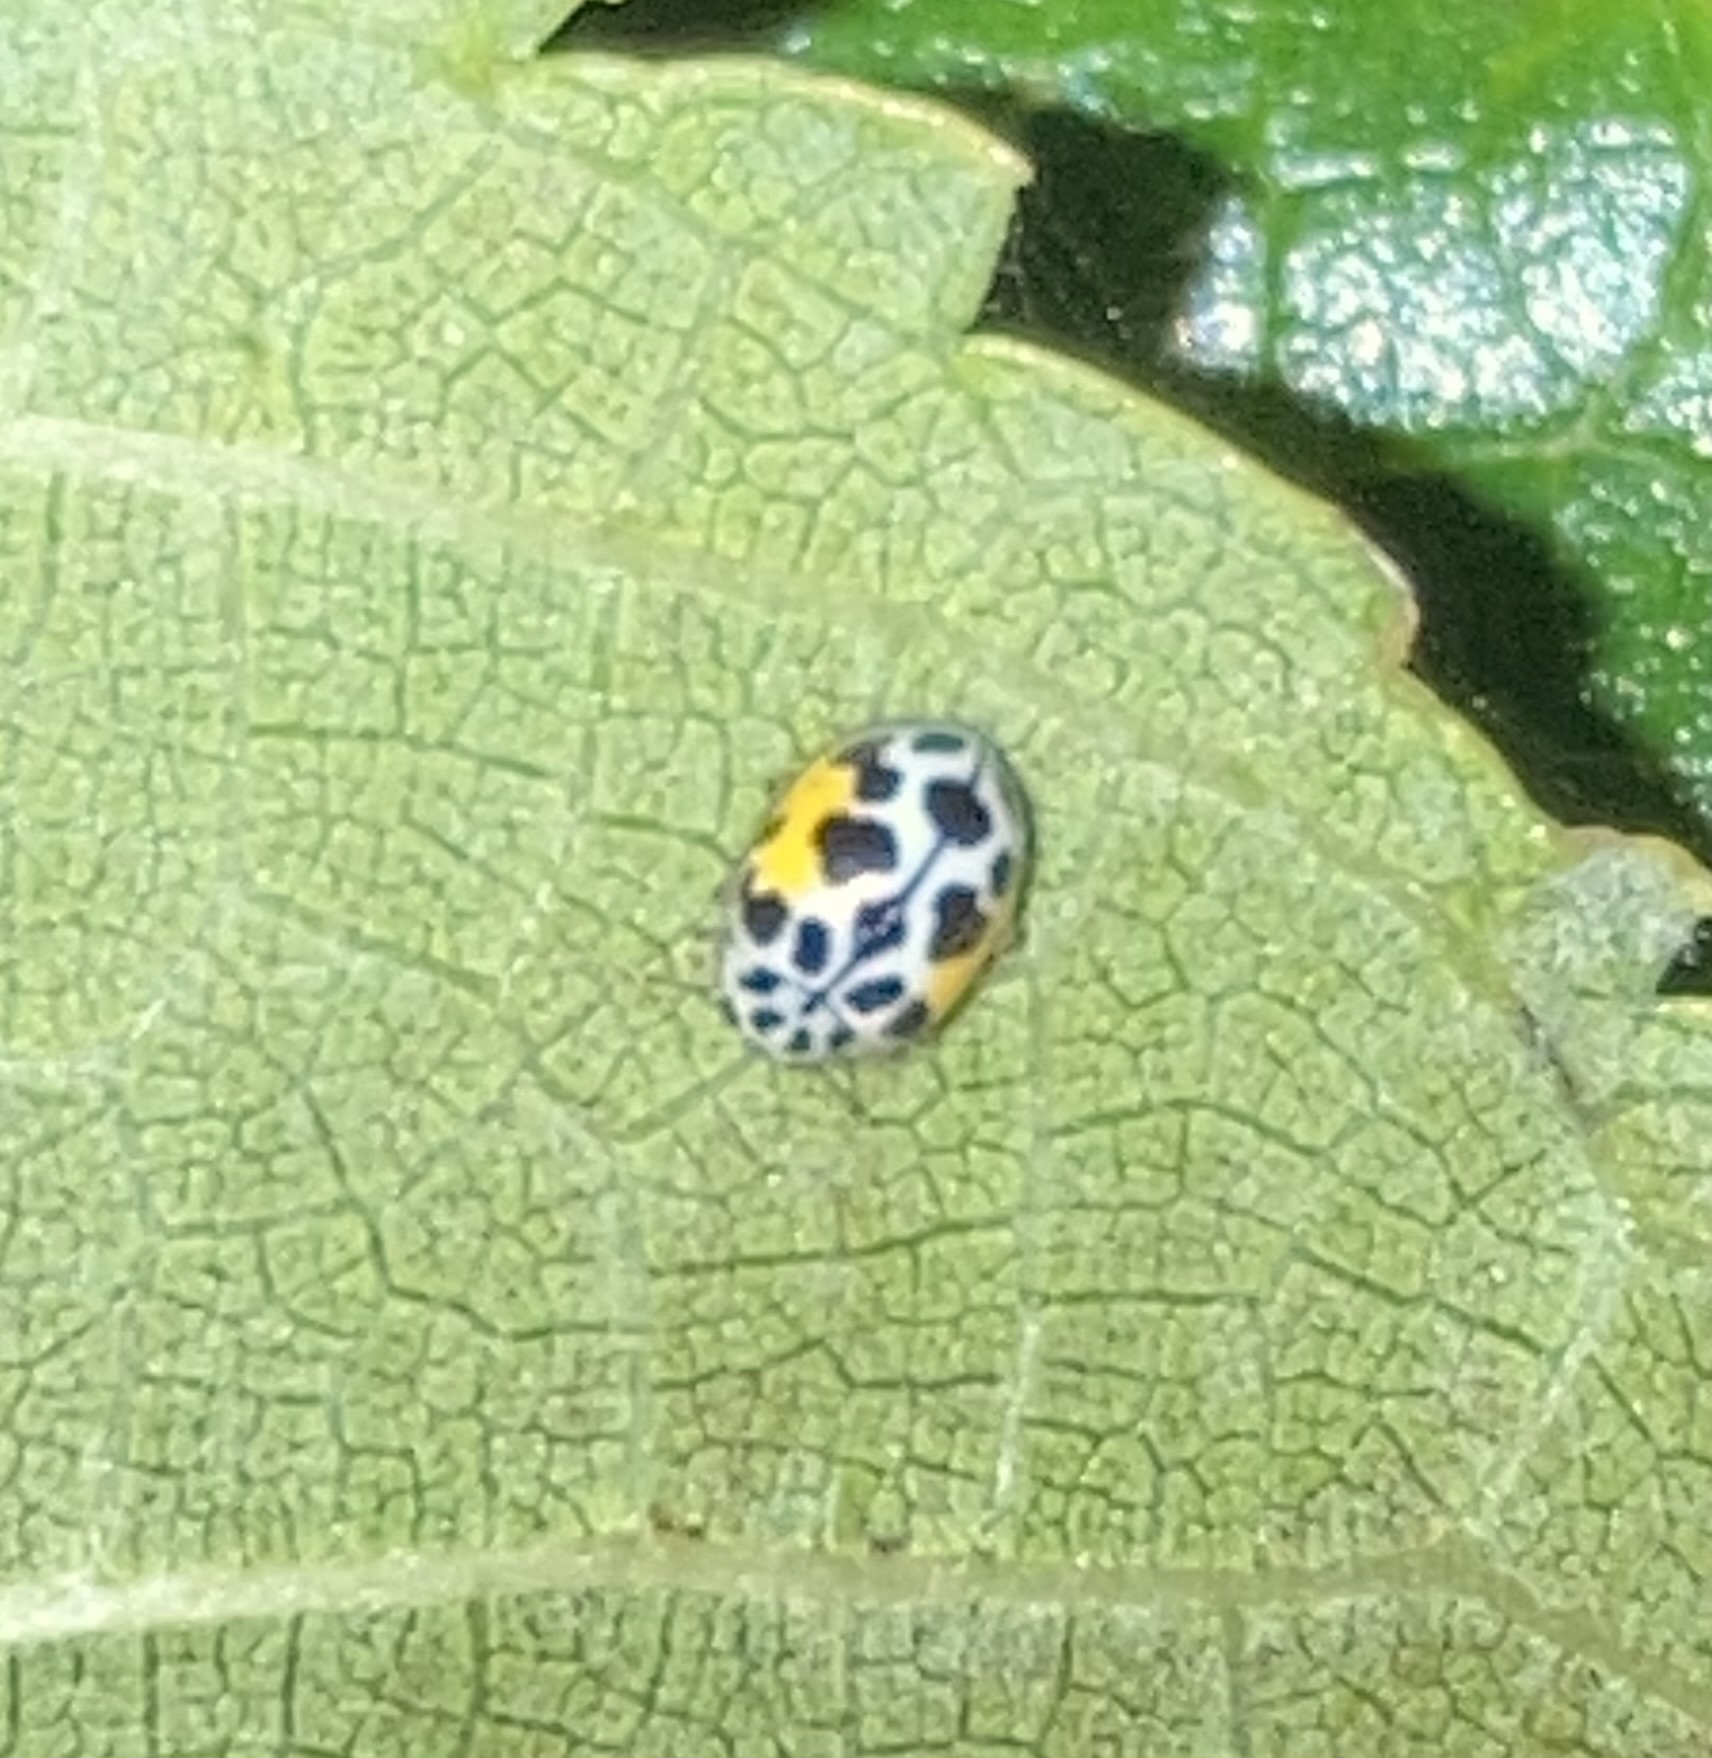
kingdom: Animalia
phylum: Arthropoda
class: Insecta
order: Coleoptera
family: Coccinellidae
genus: Psyllobora
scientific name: Psyllobora nana
